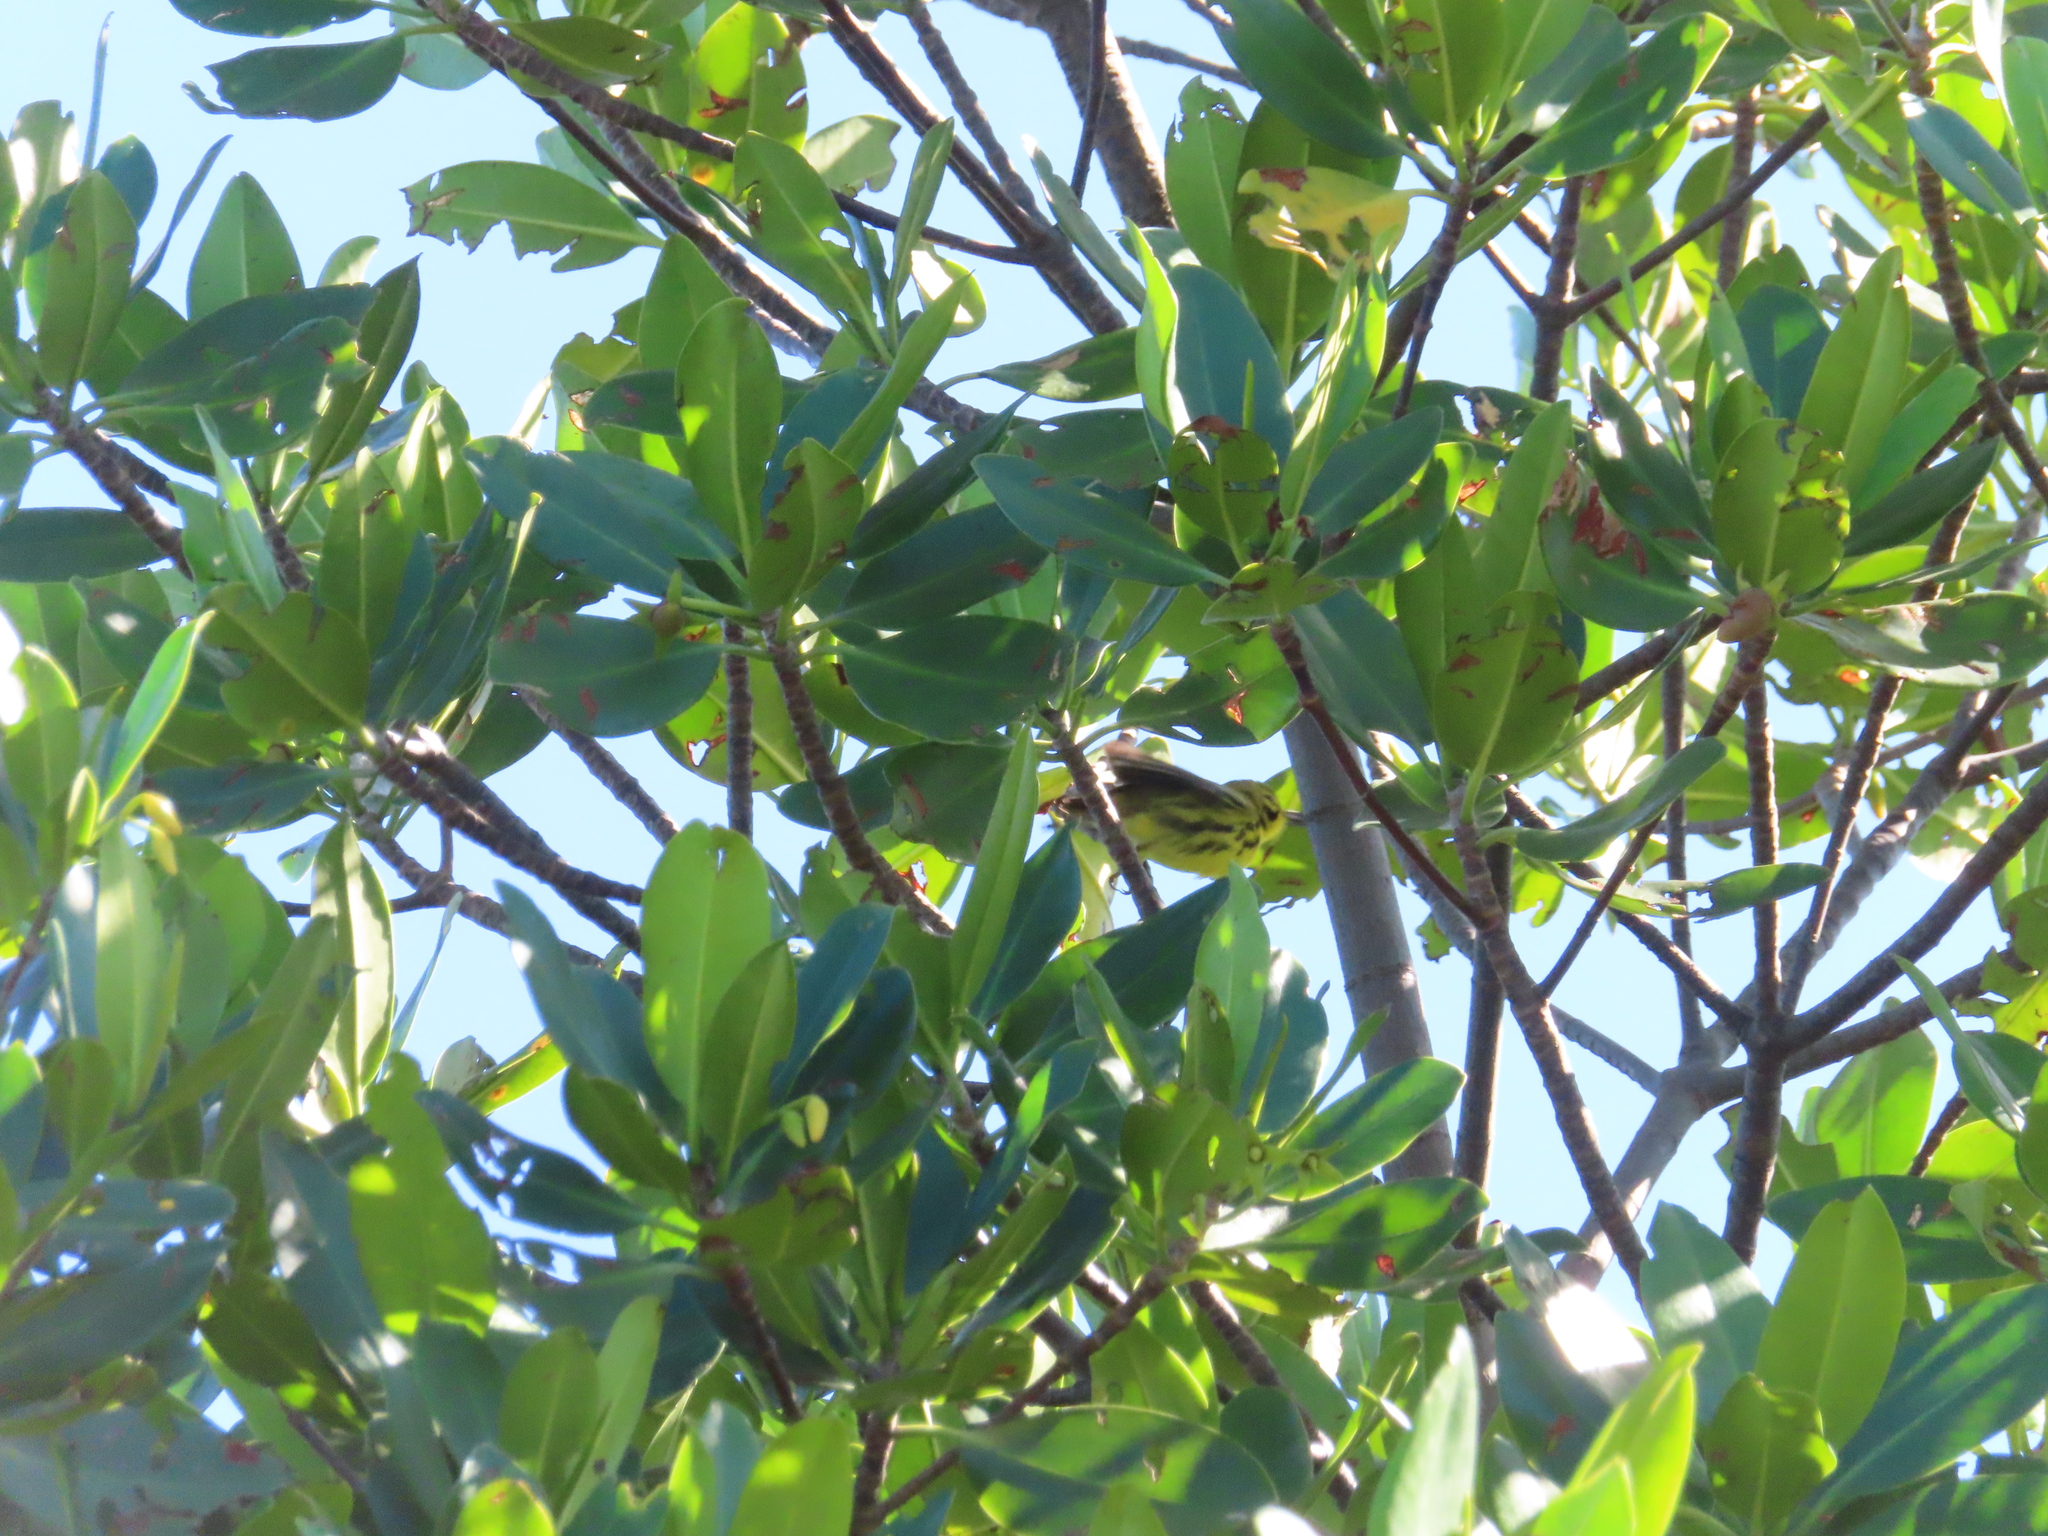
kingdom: Animalia
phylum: Chordata
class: Aves
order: Passeriformes
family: Parulidae
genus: Setophaga
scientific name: Setophaga discolor
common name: Prairie warbler
